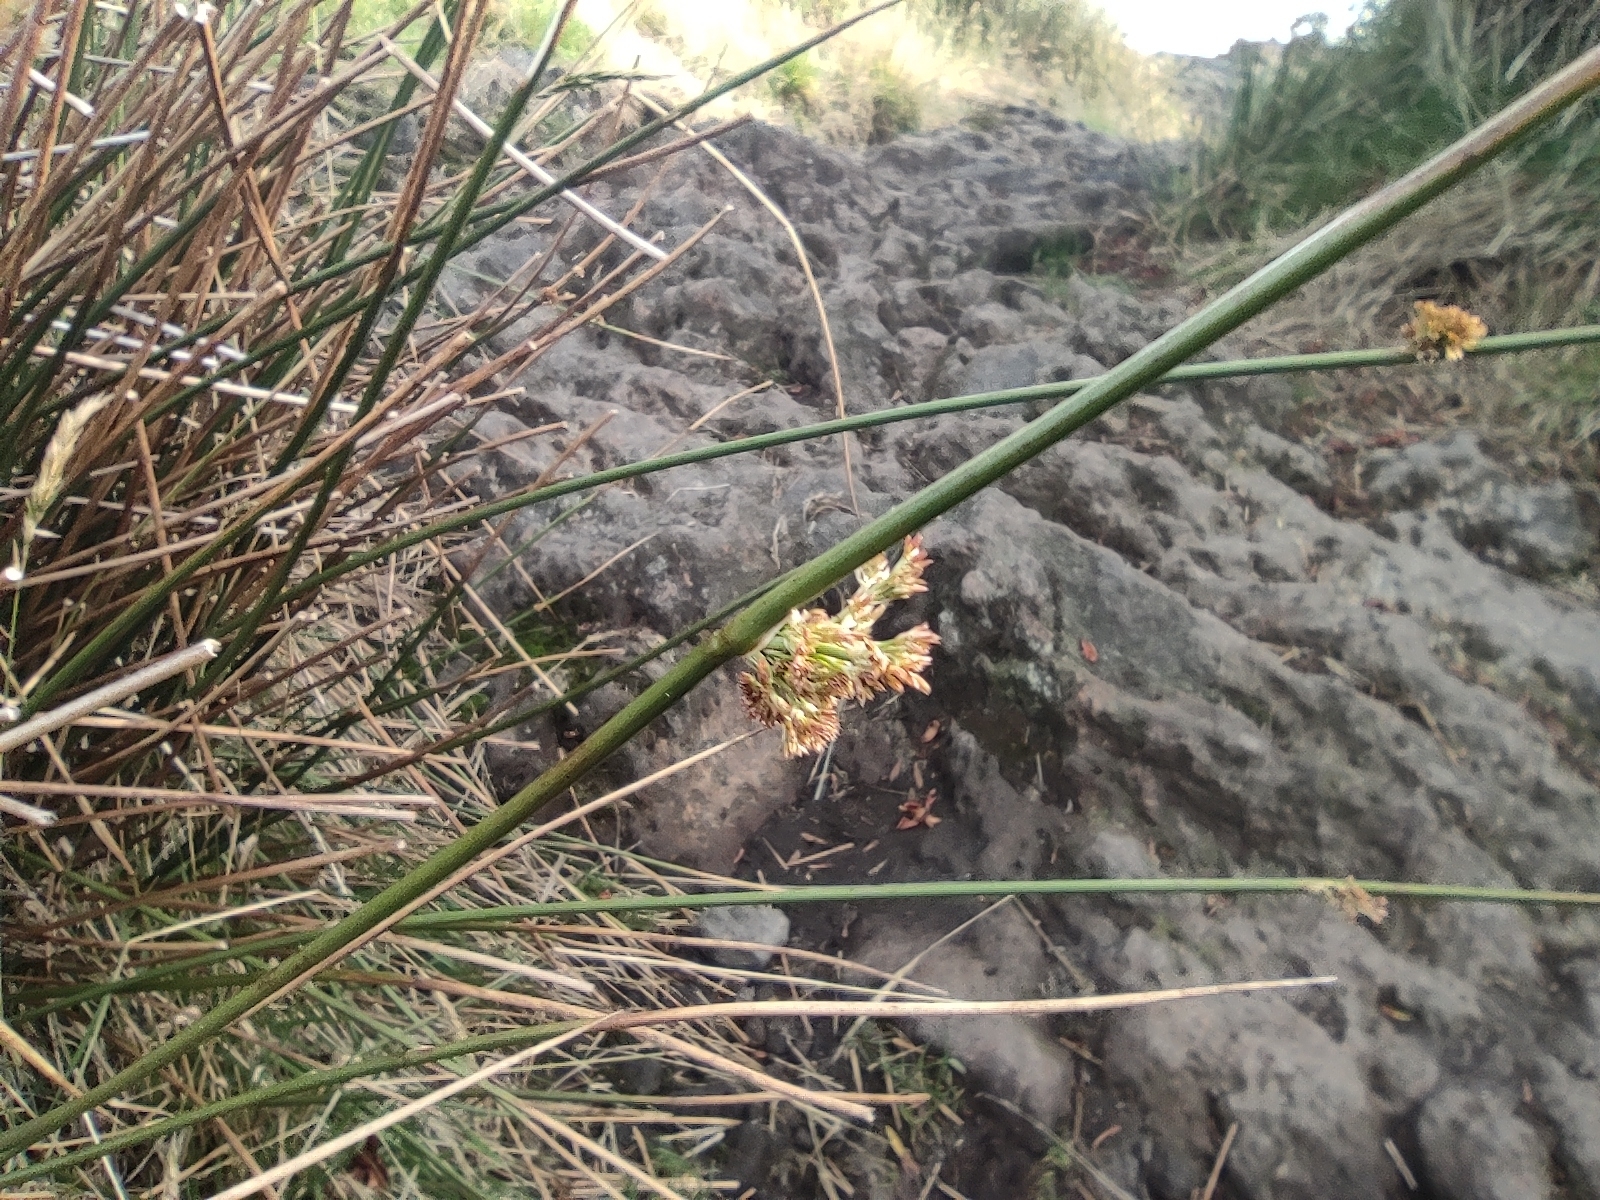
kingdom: Plantae
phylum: Tracheophyta
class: Liliopsida
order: Poales
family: Juncaceae
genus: Juncus
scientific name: Juncus effusus
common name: Soft rush
